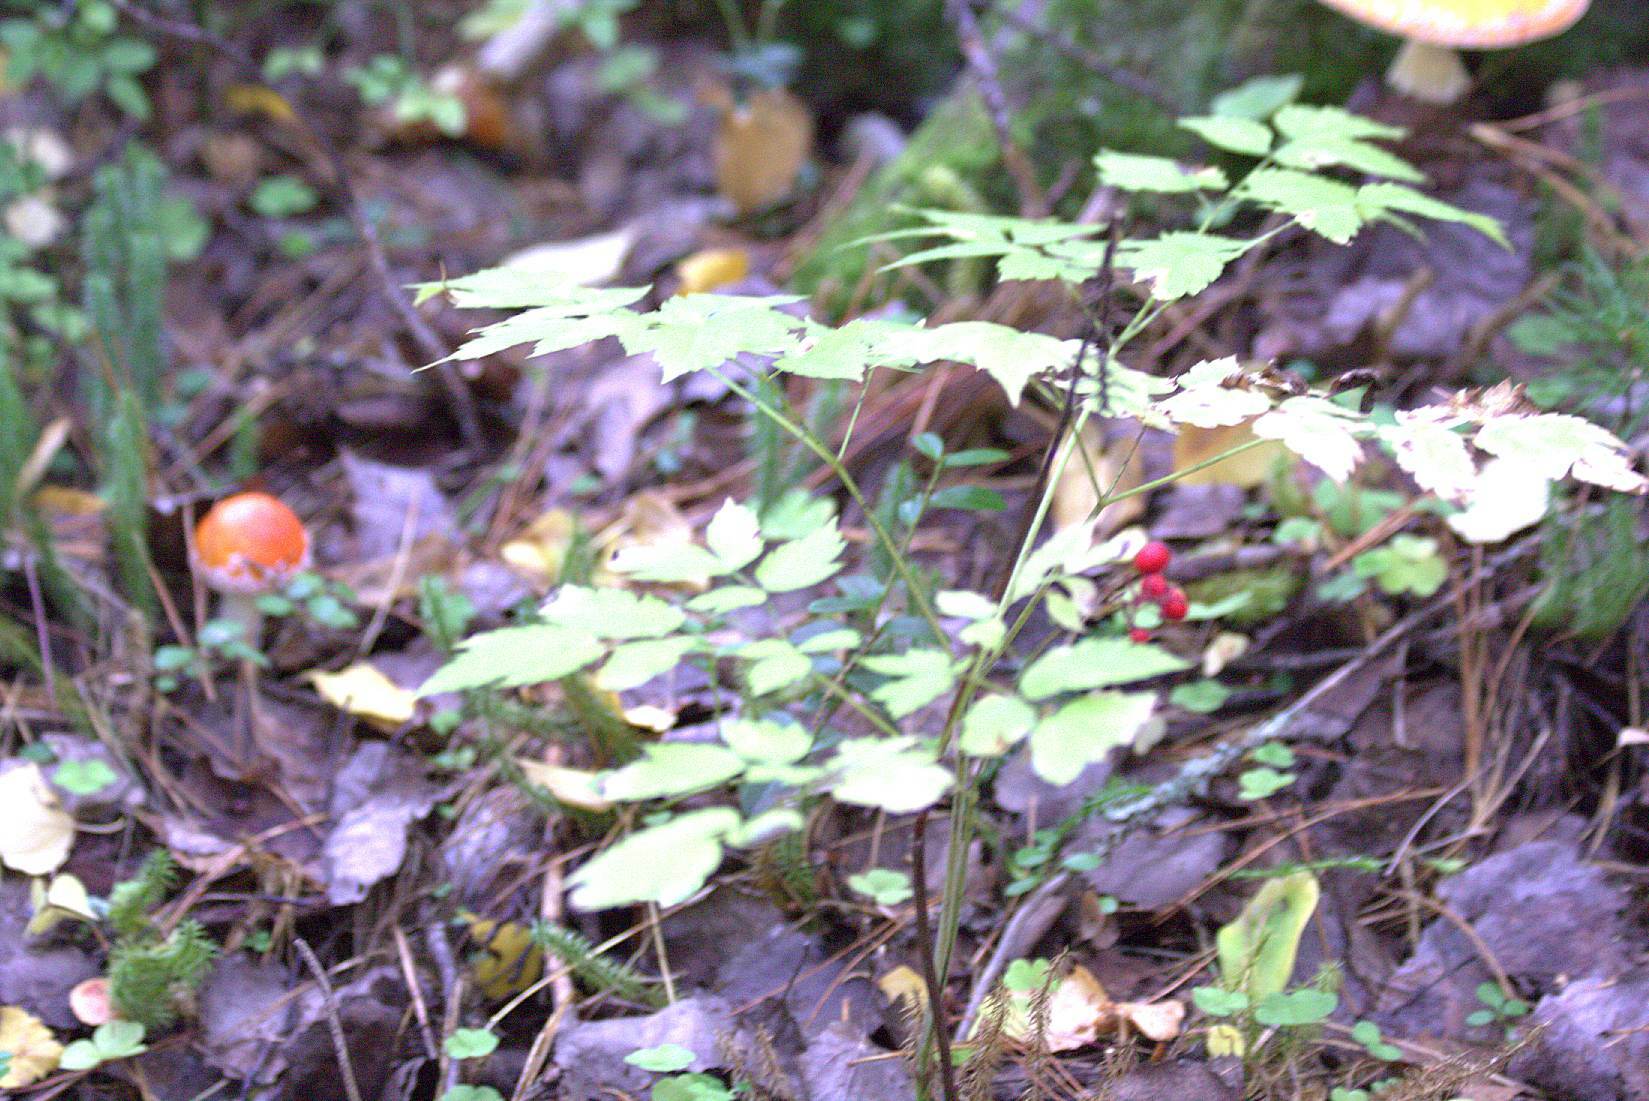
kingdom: Plantae
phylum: Tracheophyta
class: Magnoliopsida
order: Ranunculales
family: Ranunculaceae
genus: Actaea
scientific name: Actaea erythrocarpa
